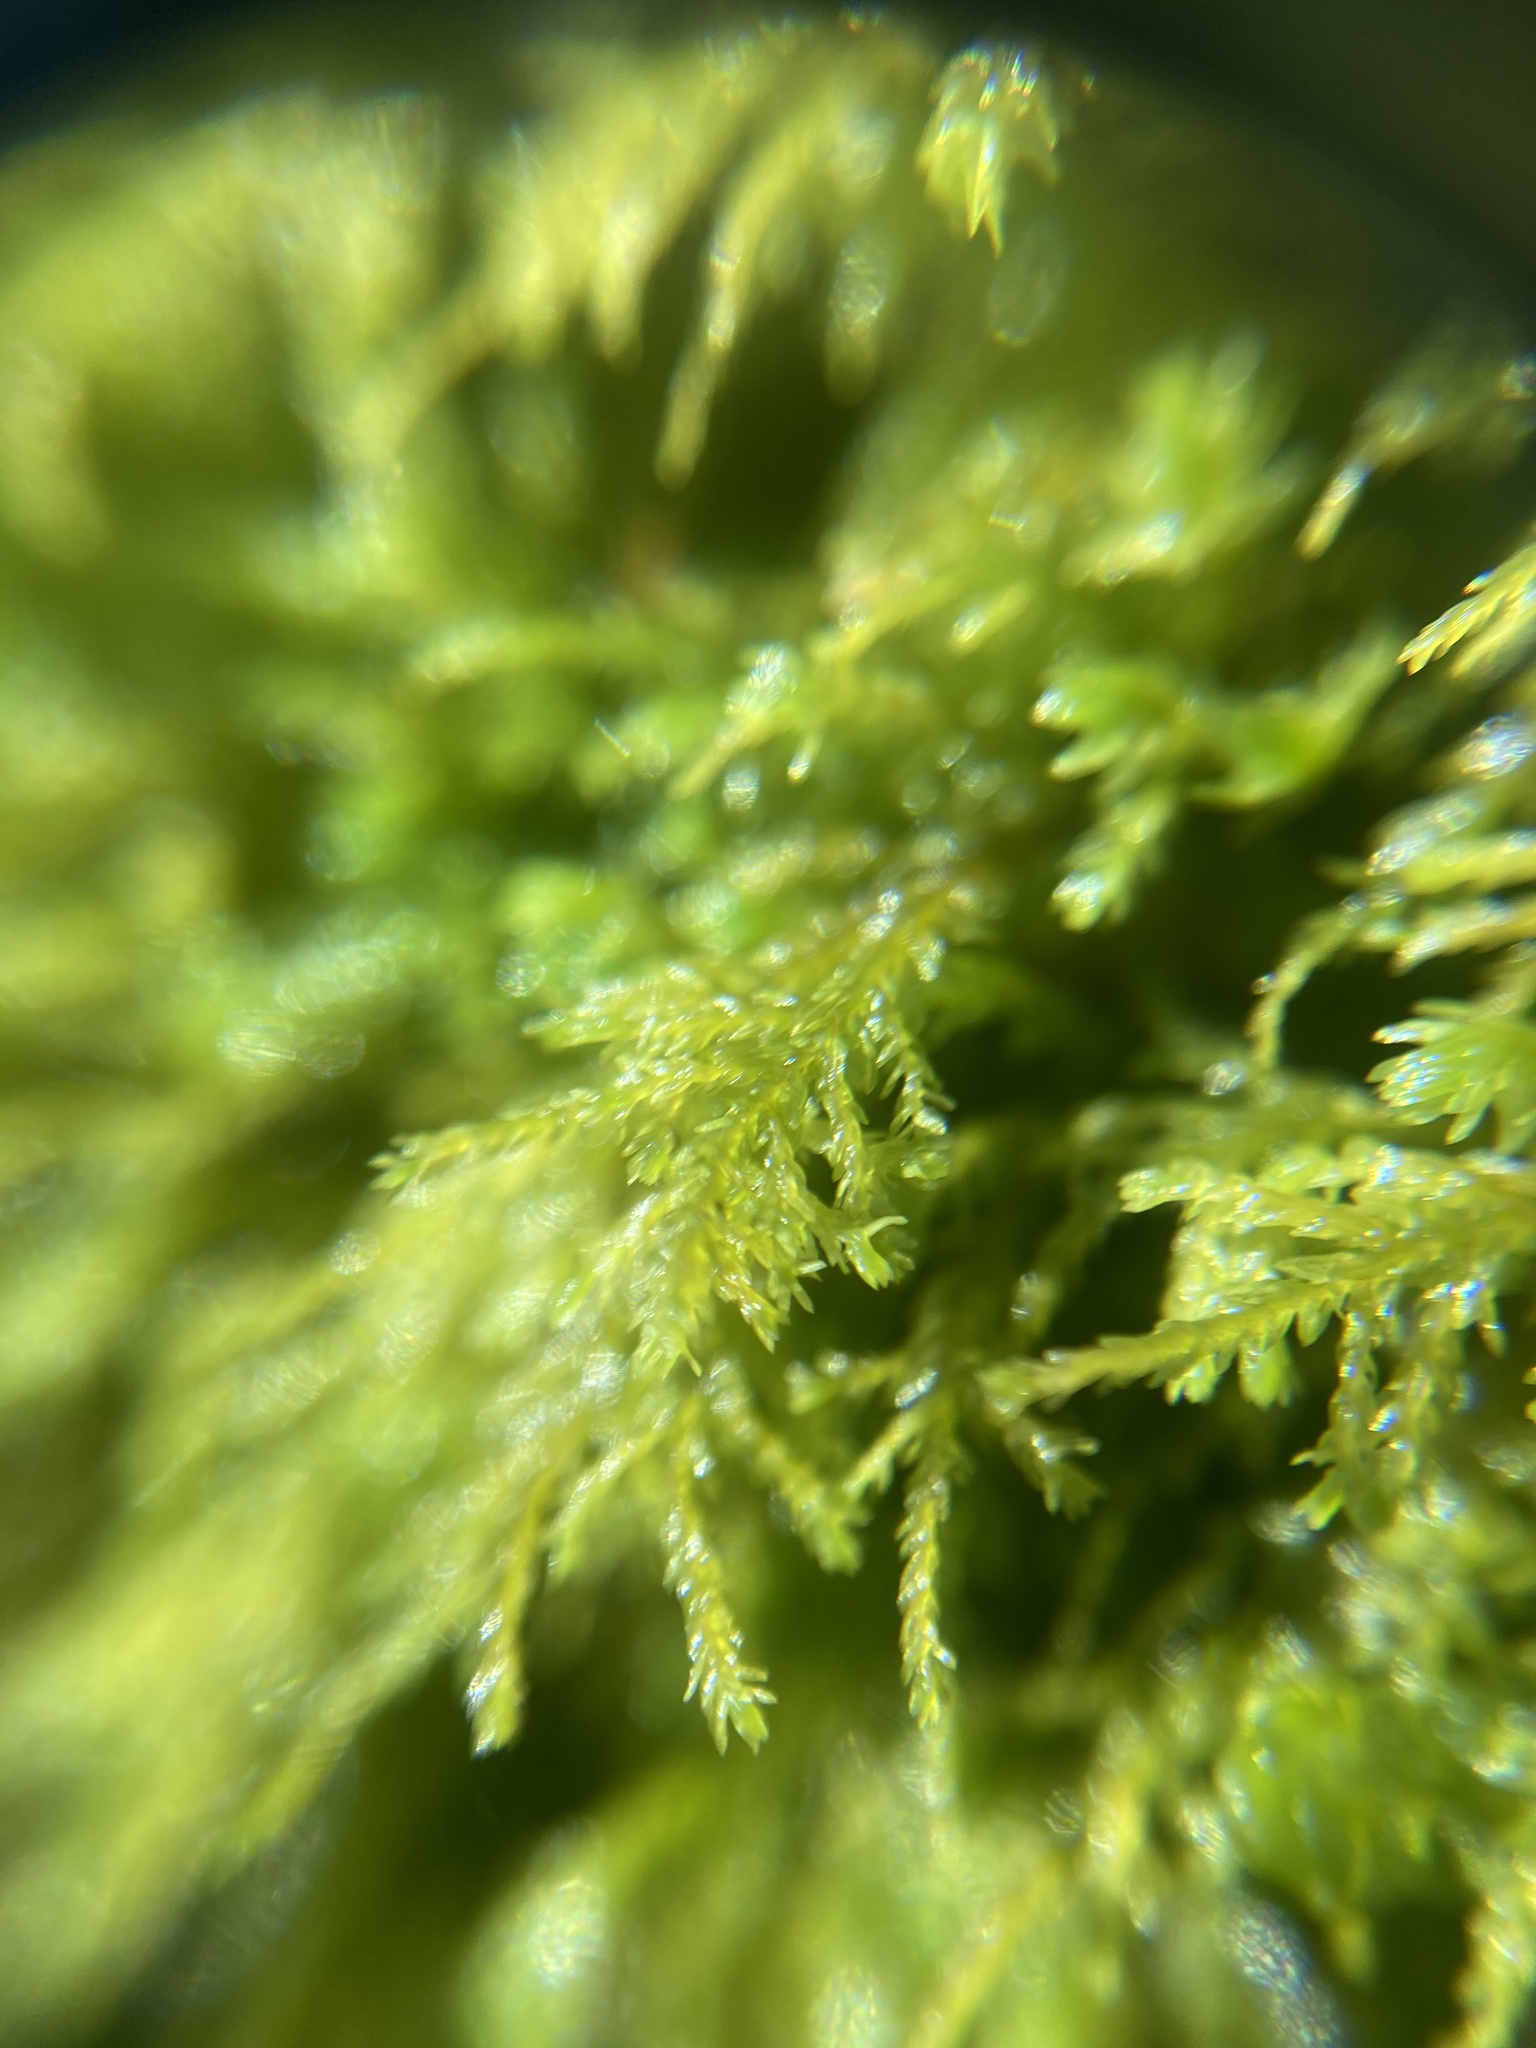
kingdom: Plantae
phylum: Bryophyta
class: Bryopsida
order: Hypnales
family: Neckeraceae
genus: Pseudanomodon
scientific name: Pseudanomodon attenuatus
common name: Tree-skirt moss
